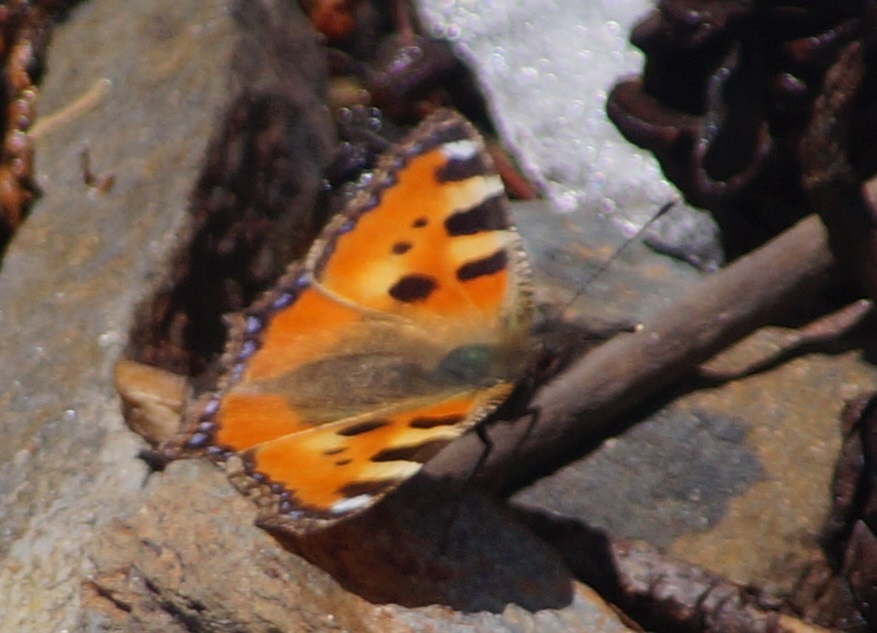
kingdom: Animalia
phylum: Arthropoda
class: Insecta
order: Lepidoptera
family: Nymphalidae
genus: Aglais
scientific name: Aglais urticae
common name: Small tortoiseshell
